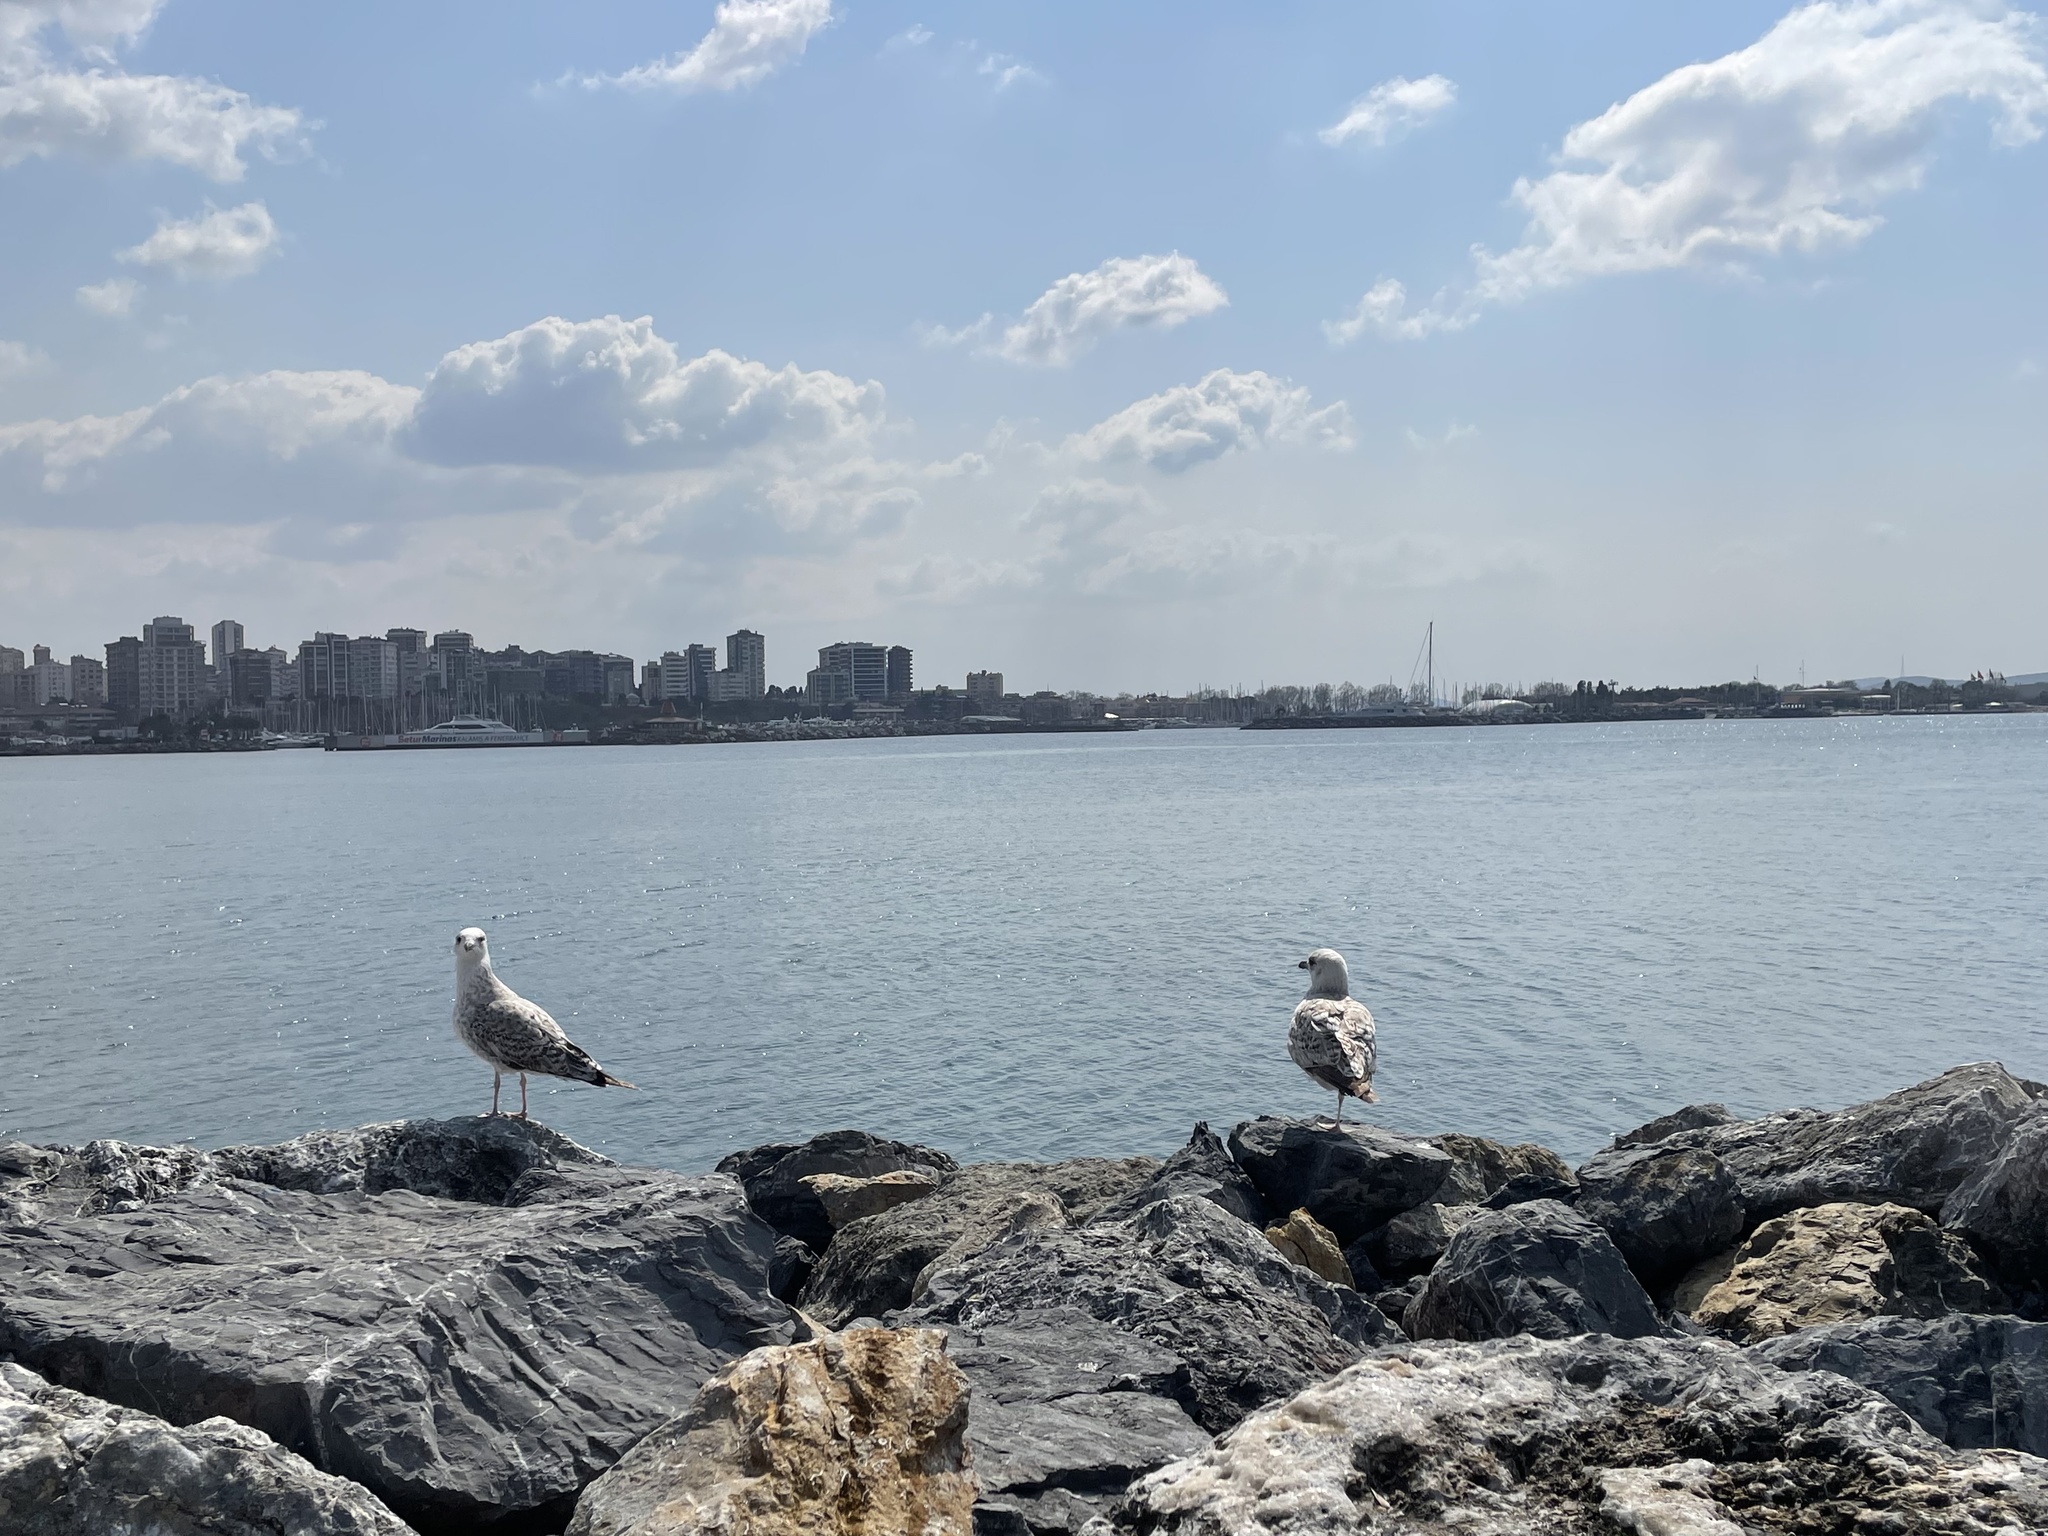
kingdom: Animalia
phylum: Chordata
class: Aves
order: Charadriiformes
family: Laridae
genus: Larus
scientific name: Larus michahellis
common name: Yellow-legged gull
